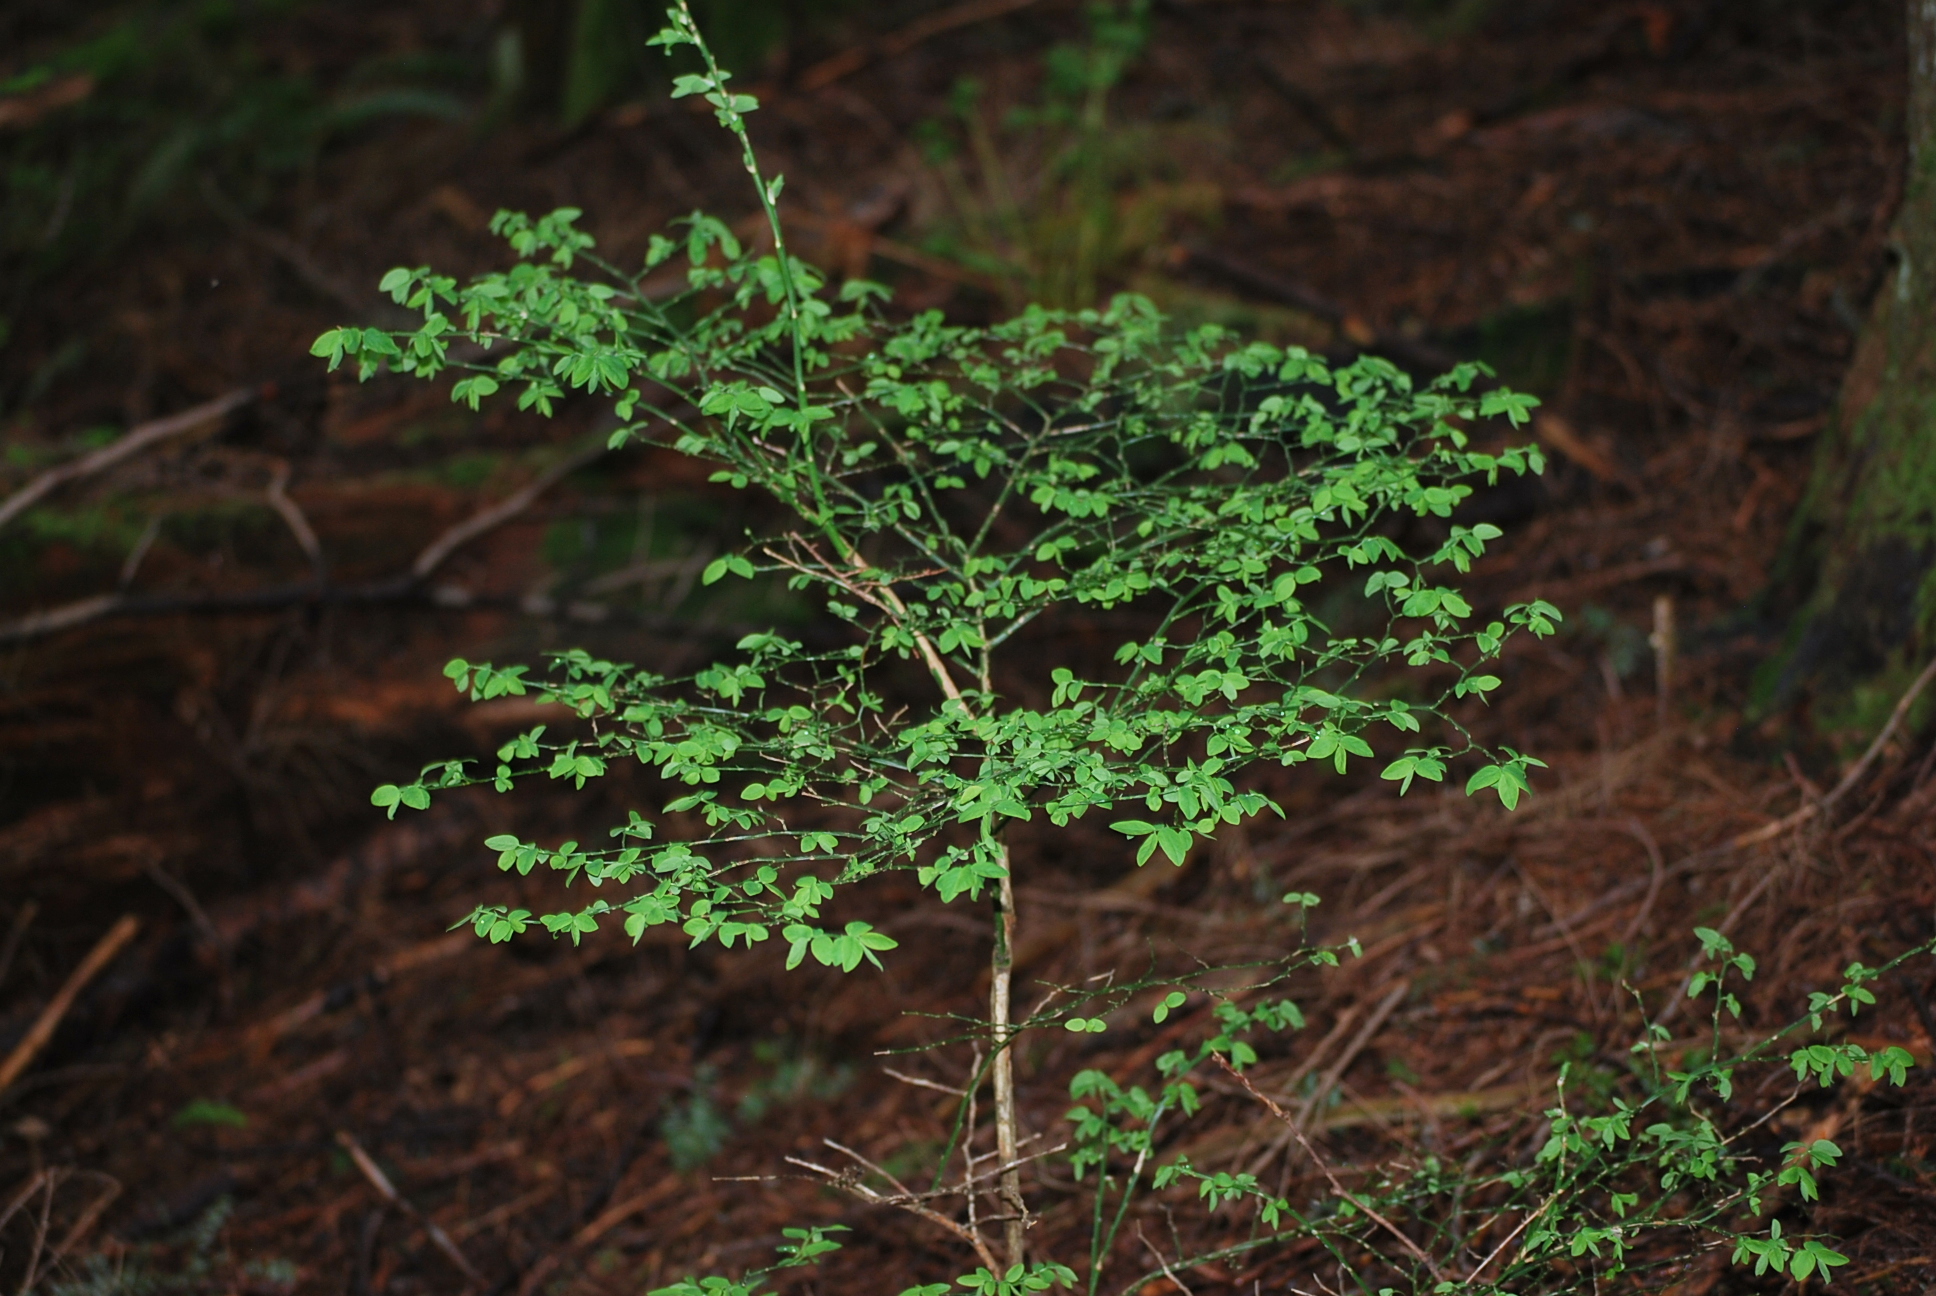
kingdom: Plantae
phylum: Tracheophyta
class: Magnoliopsida
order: Ericales
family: Ericaceae
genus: Vaccinium
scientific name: Vaccinium parvifolium
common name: Red-huckleberry
